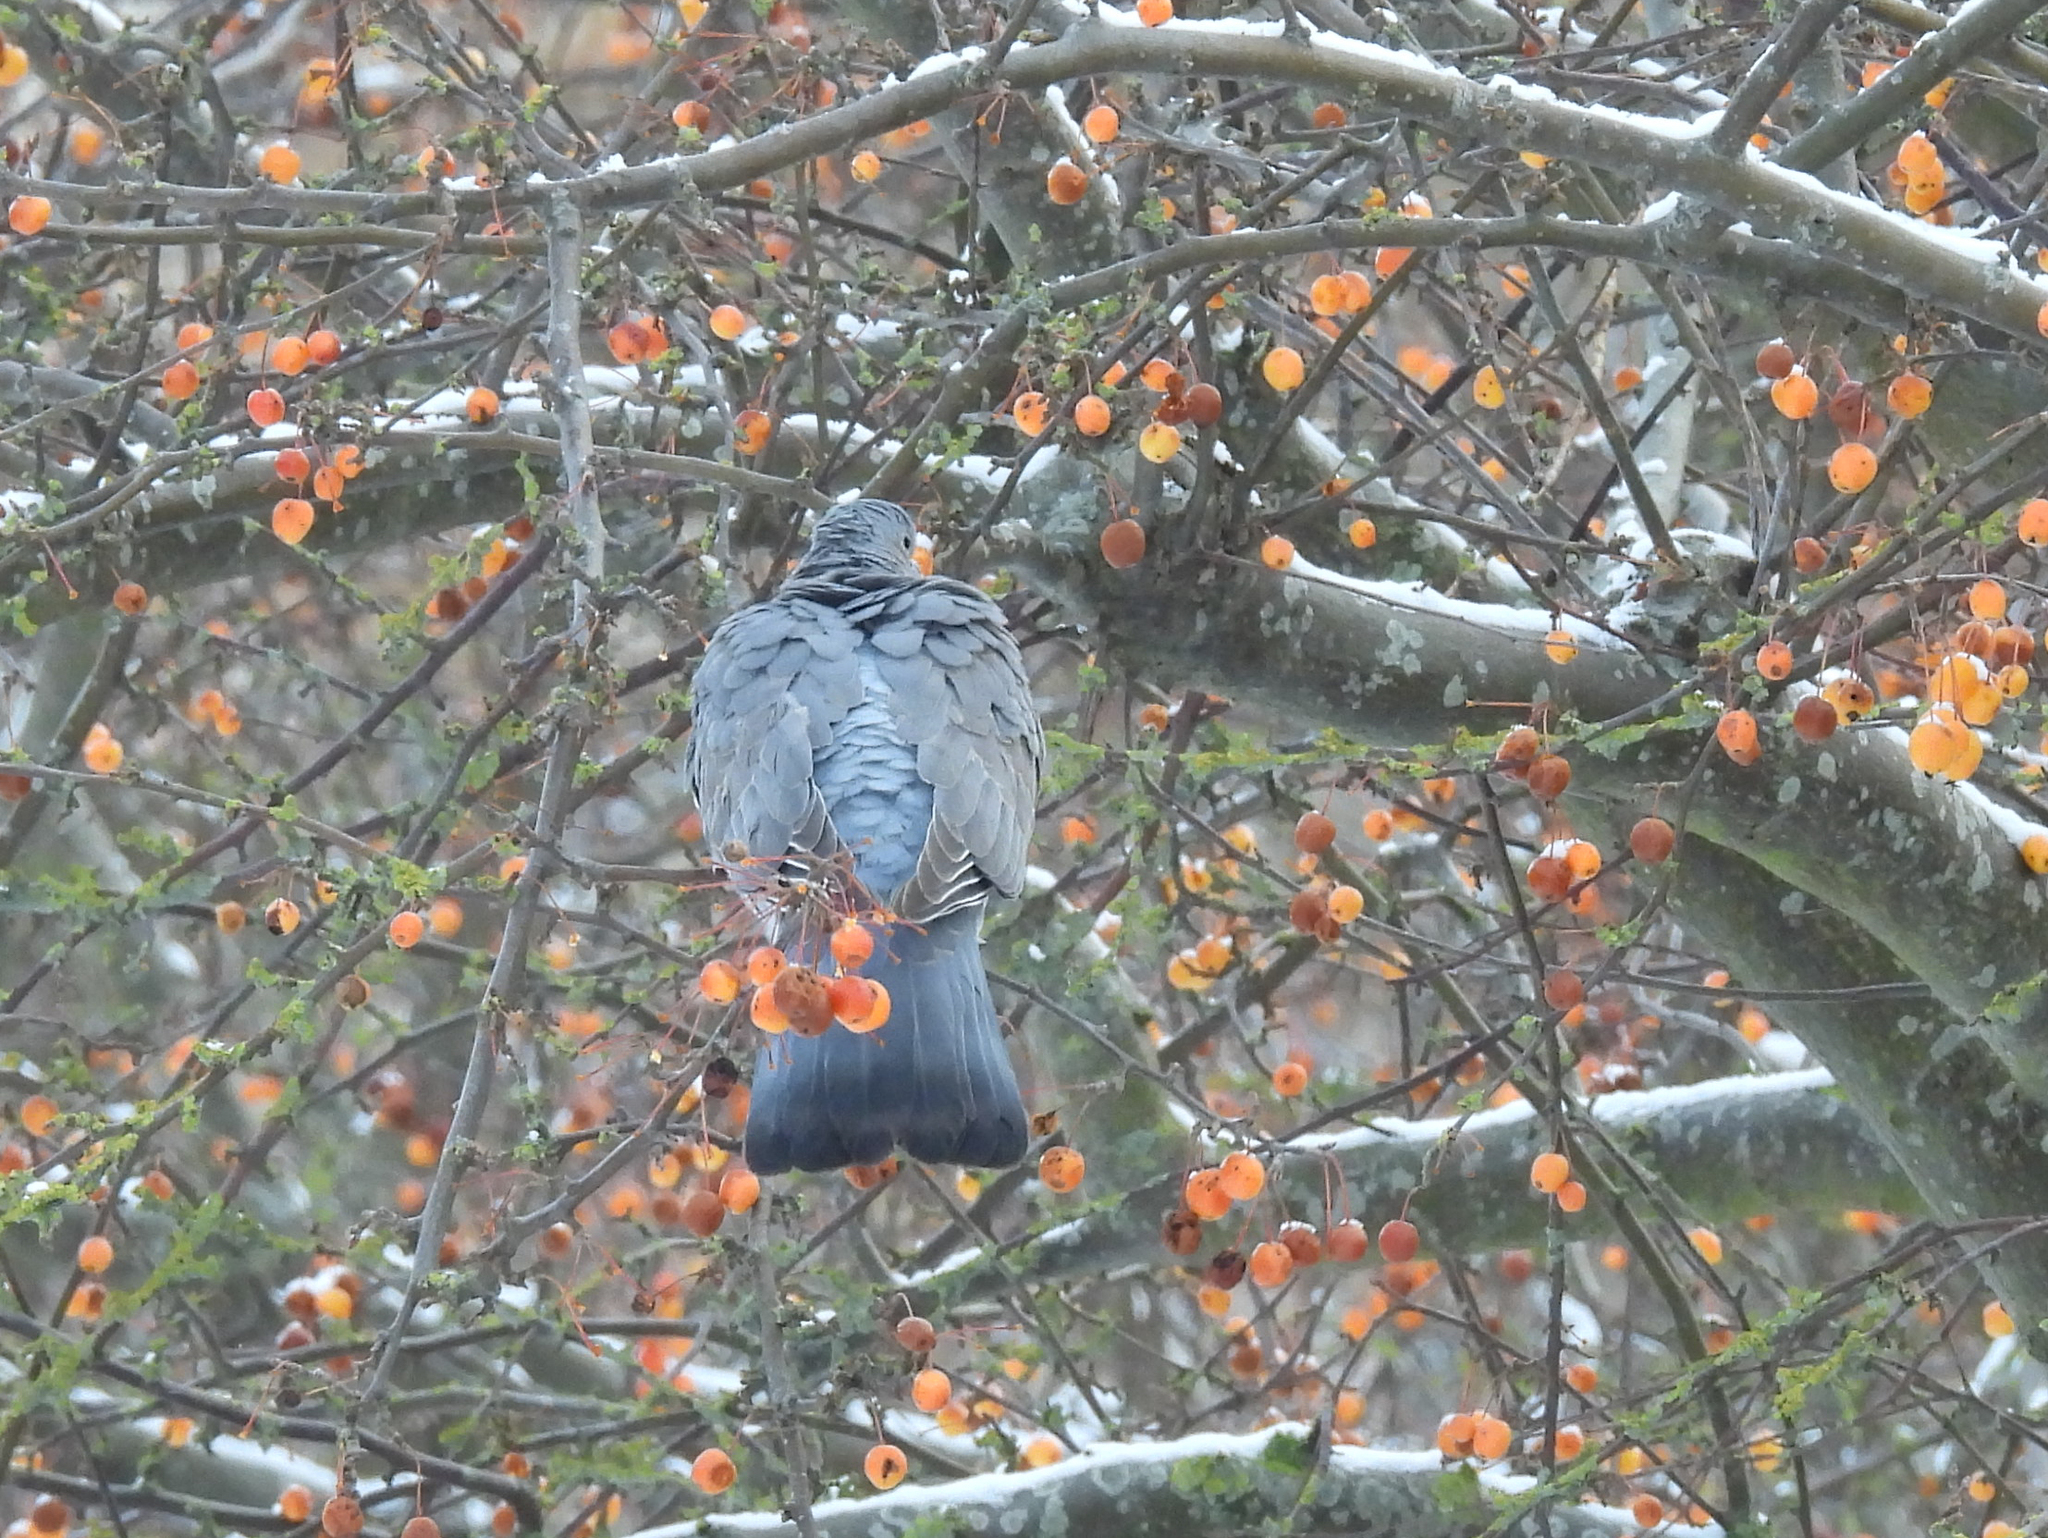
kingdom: Animalia
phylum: Chordata
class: Aves
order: Columbiformes
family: Columbidae
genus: Columba
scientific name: Columba palumbus
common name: Common wood pigeon
